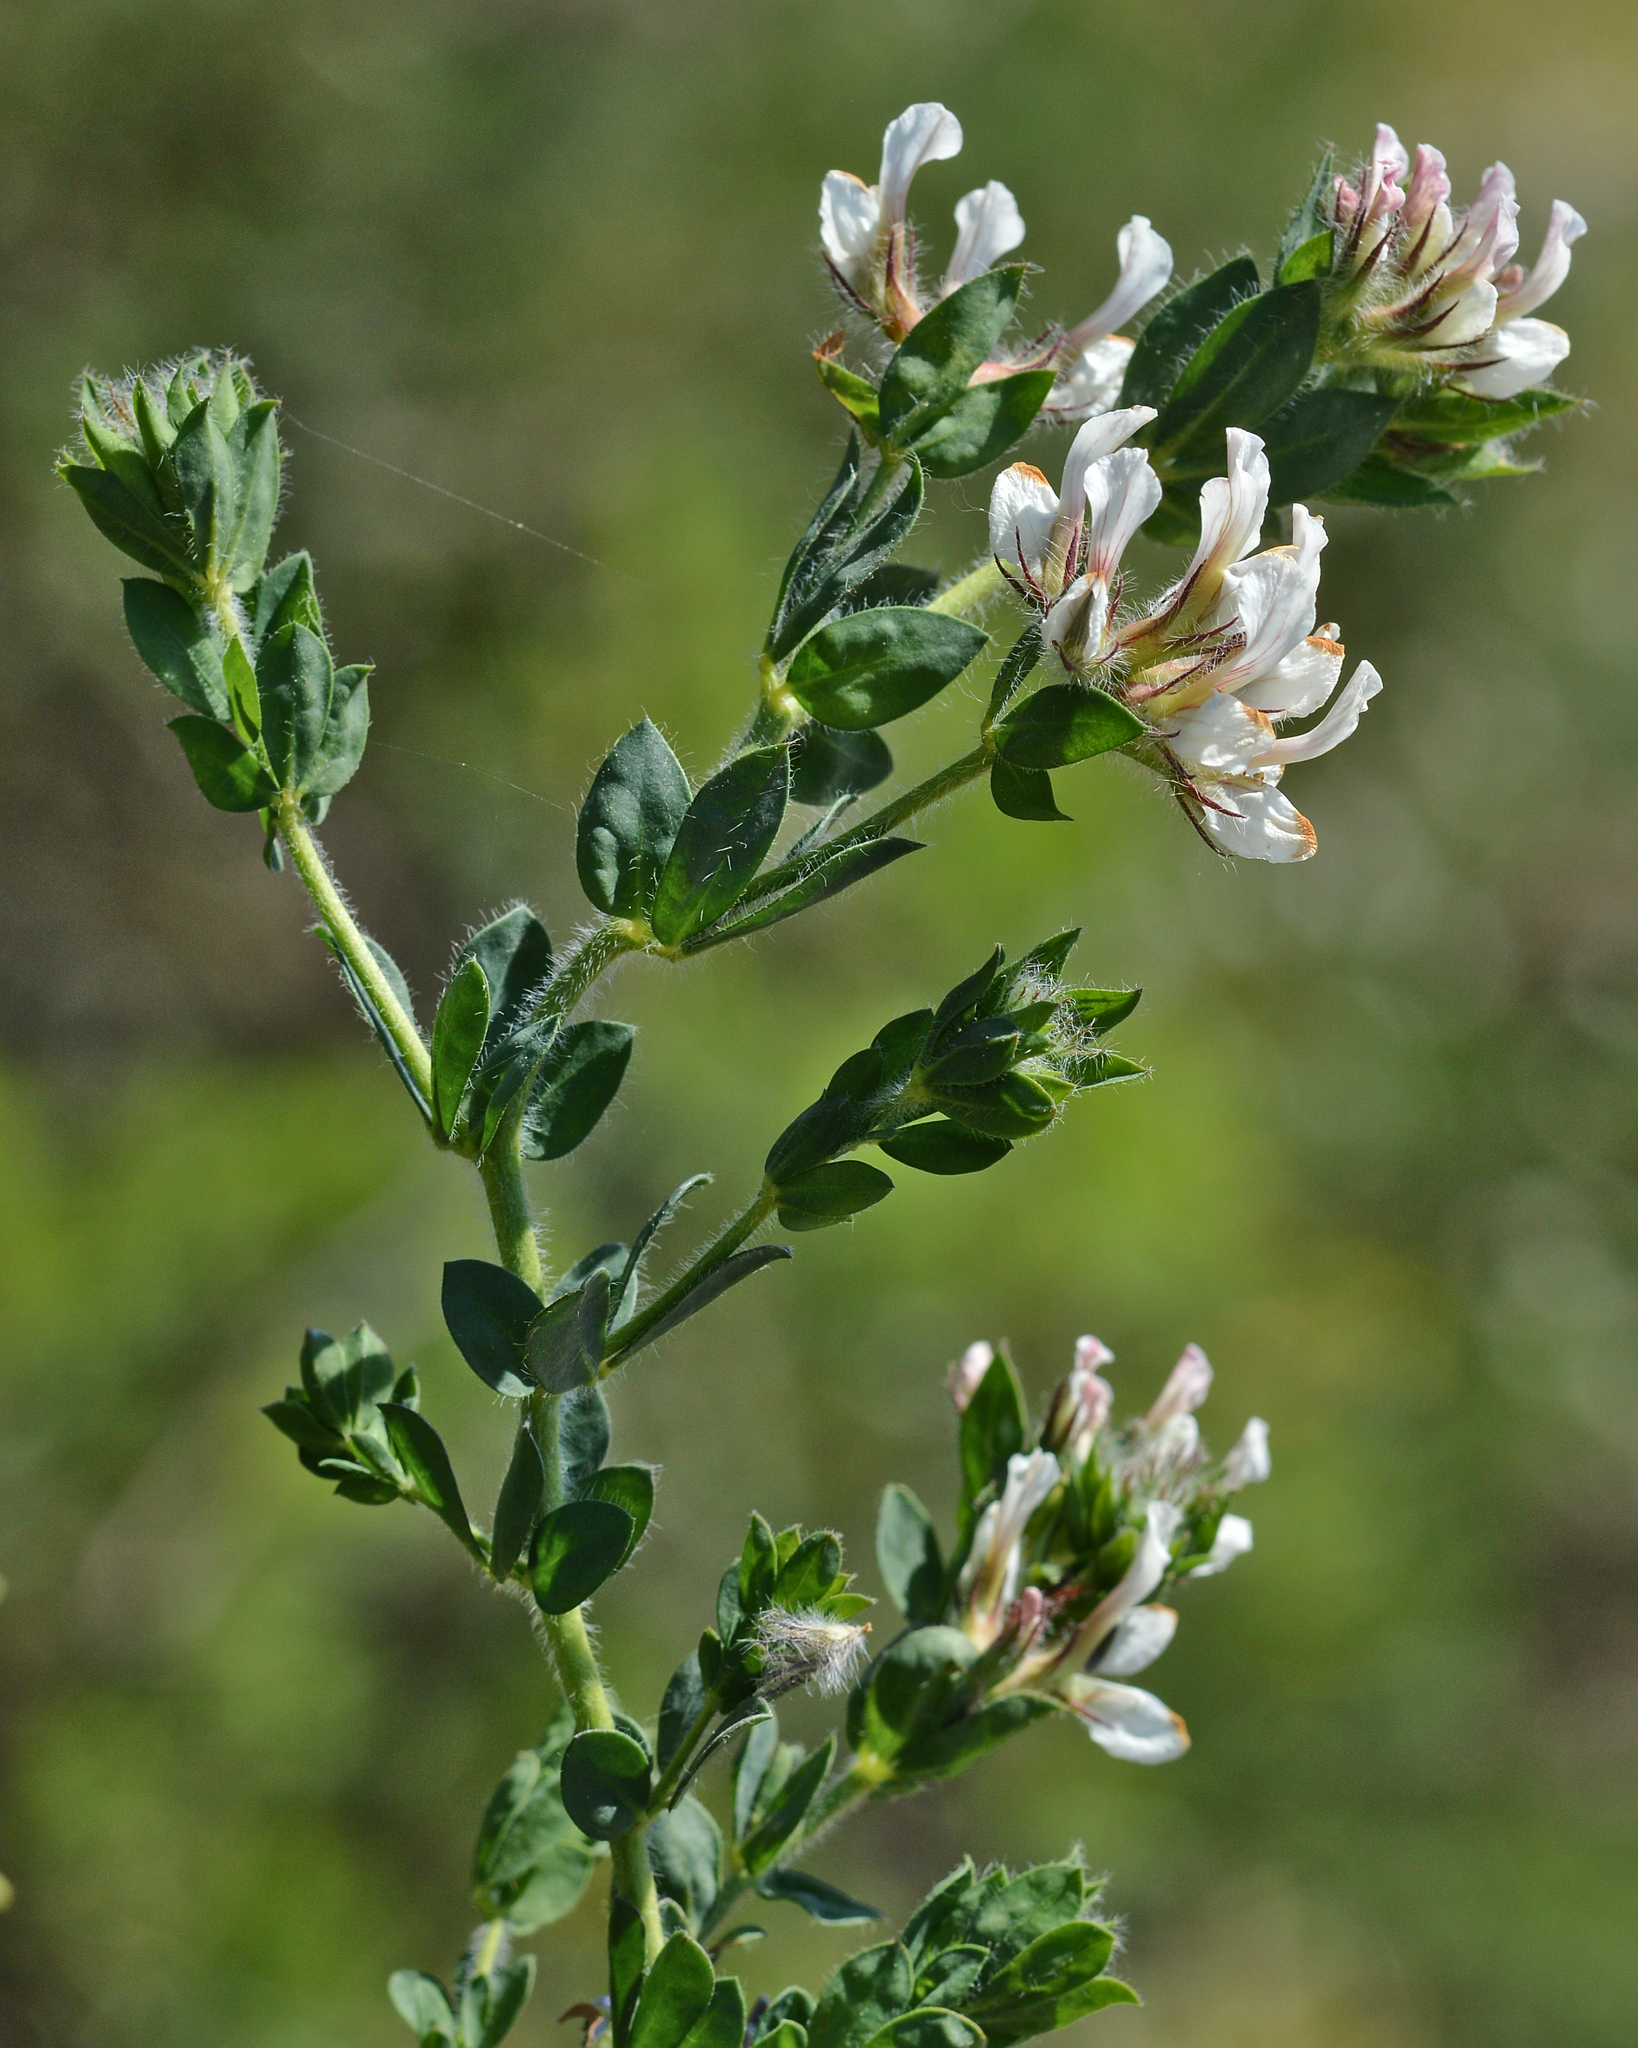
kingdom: Plantae
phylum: Tracheophyta
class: Magnoliopsida
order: Fabales
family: Fabaceae
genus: Lotus
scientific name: Lotus hirsutus
